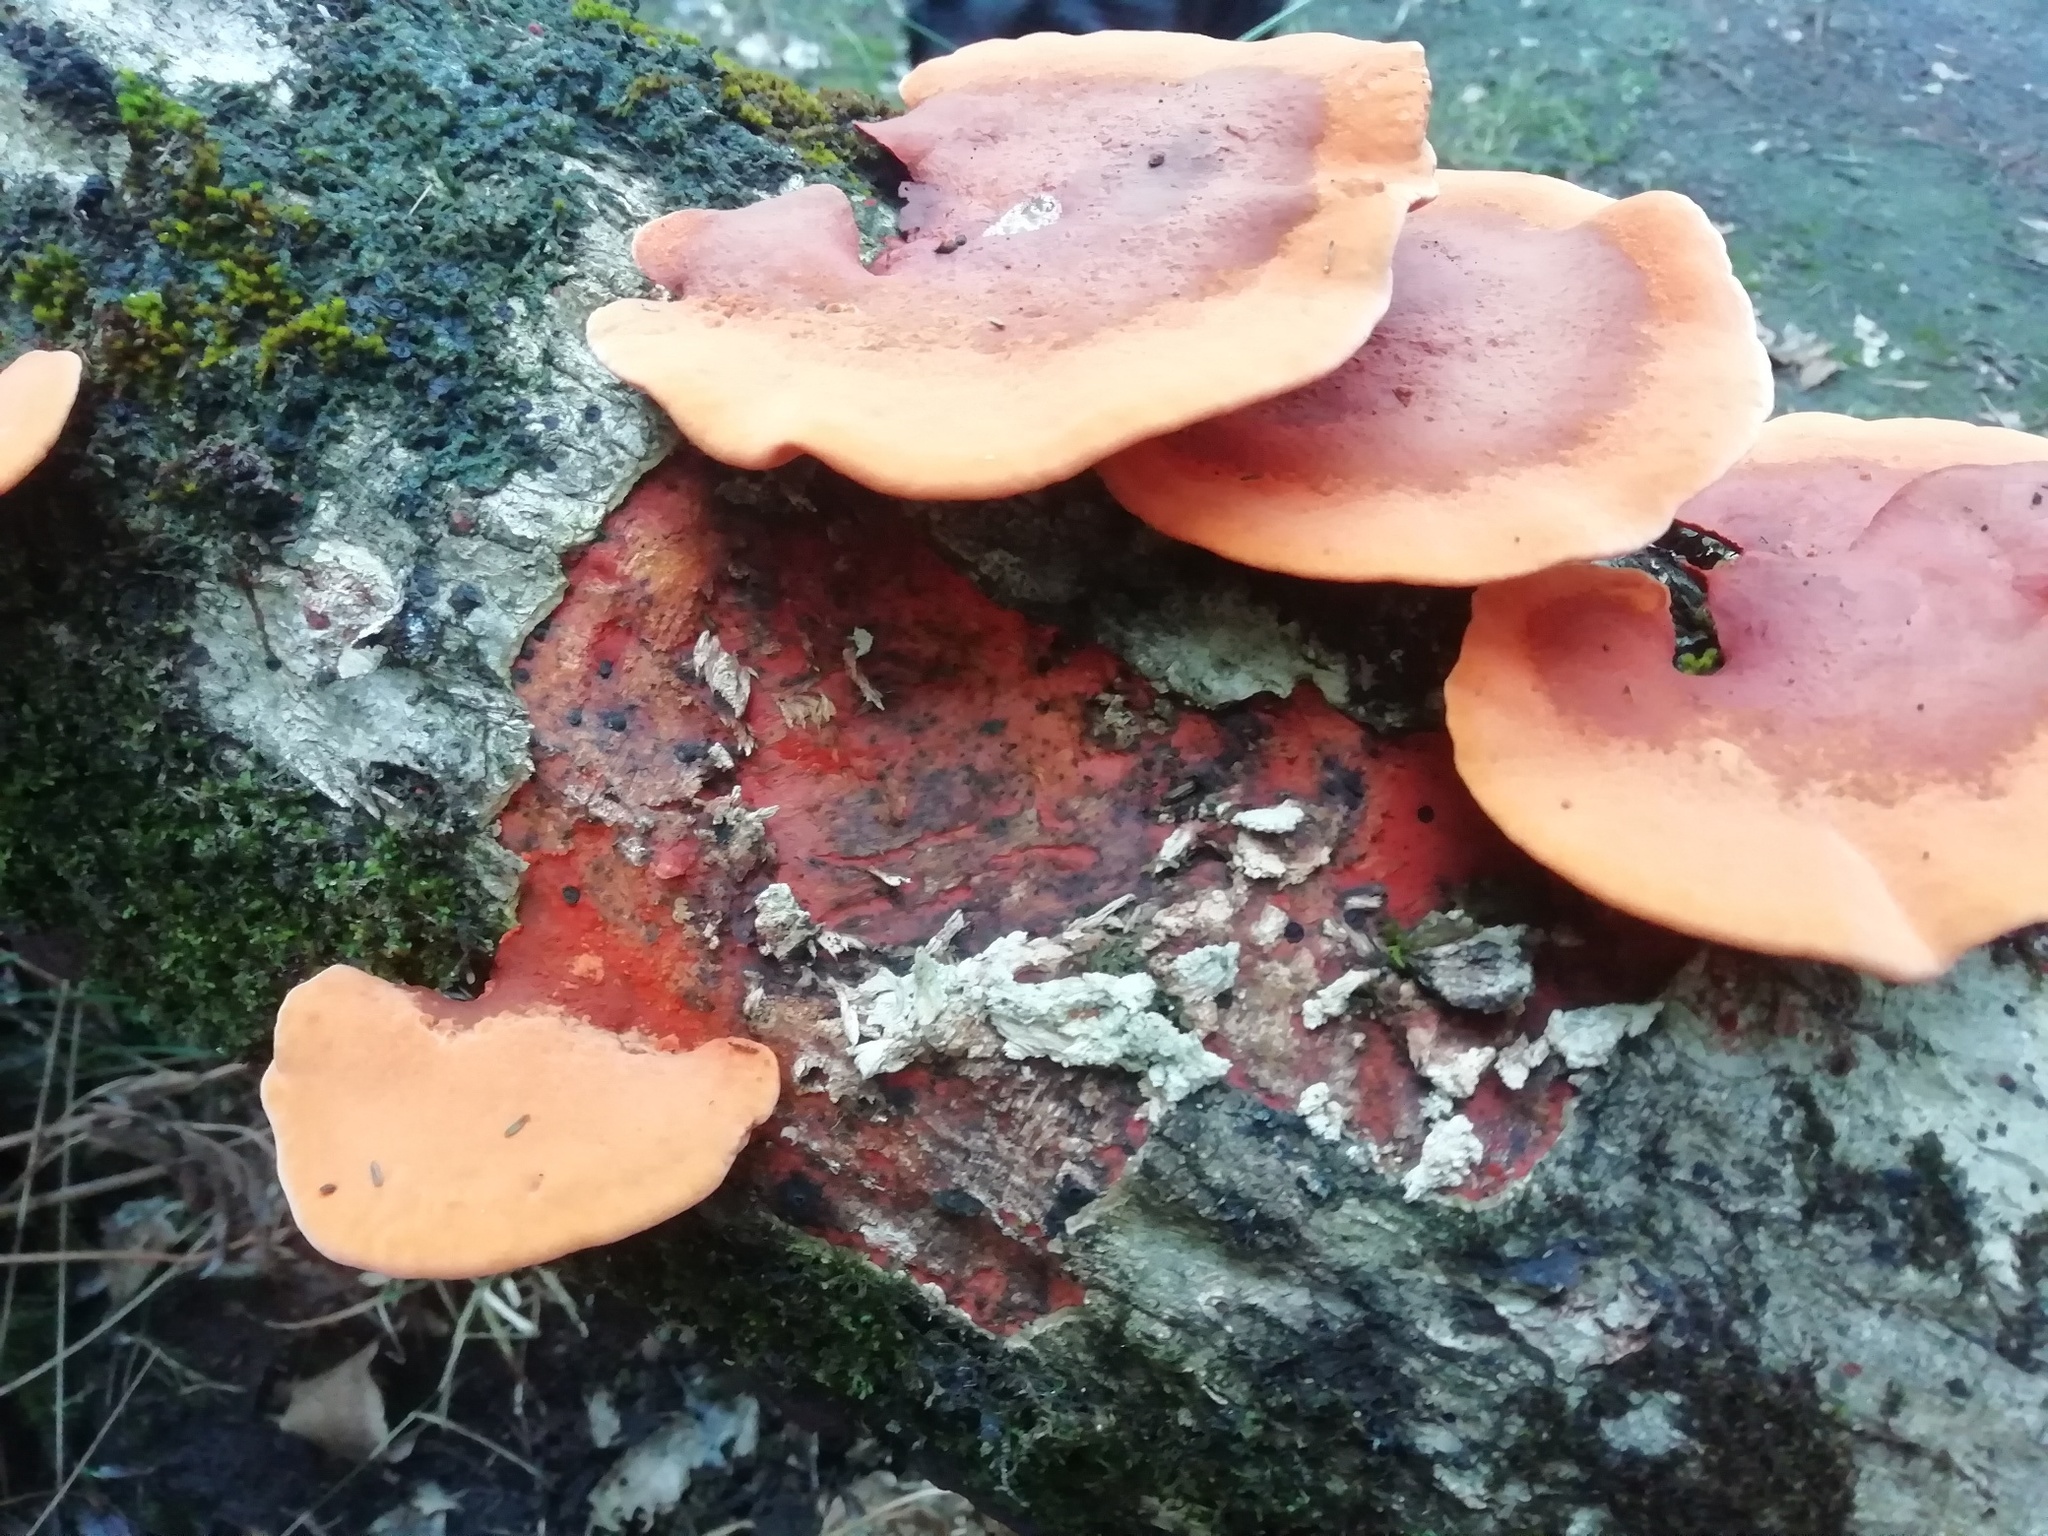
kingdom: Fungi
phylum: Basidiomycota
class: Agaricomycetes
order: Polyporales
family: Polyporaceae
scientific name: Polyporaceae
